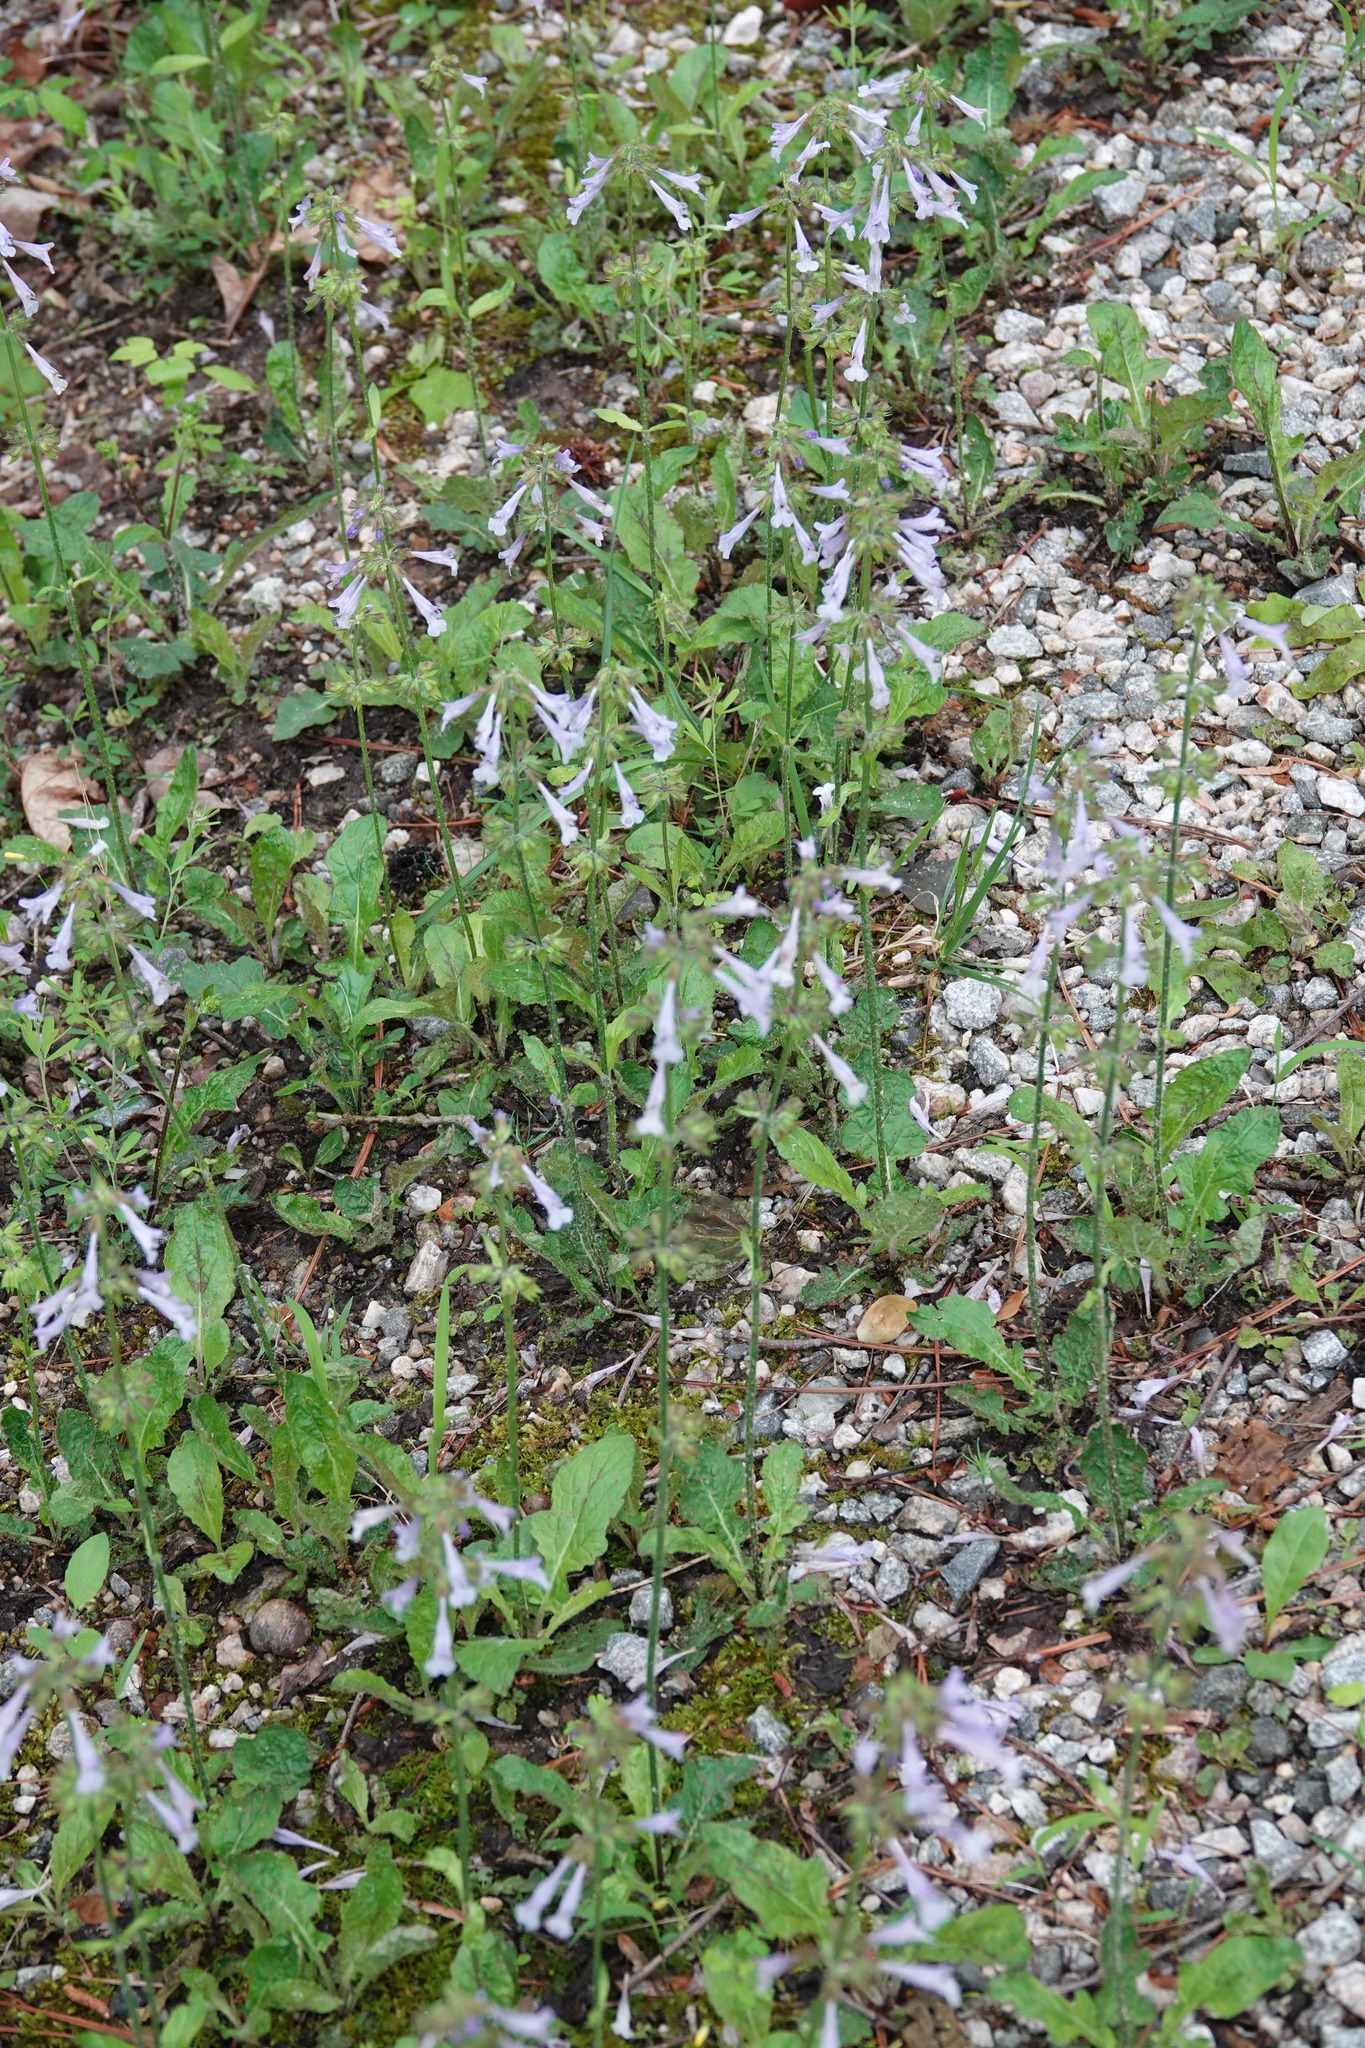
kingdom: Plantae
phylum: Tracheophyta
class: Magnoliopsida
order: Lamiales
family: Lamiaceae
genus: Salvia
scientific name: Salvia lyrata
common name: Cancerweed
